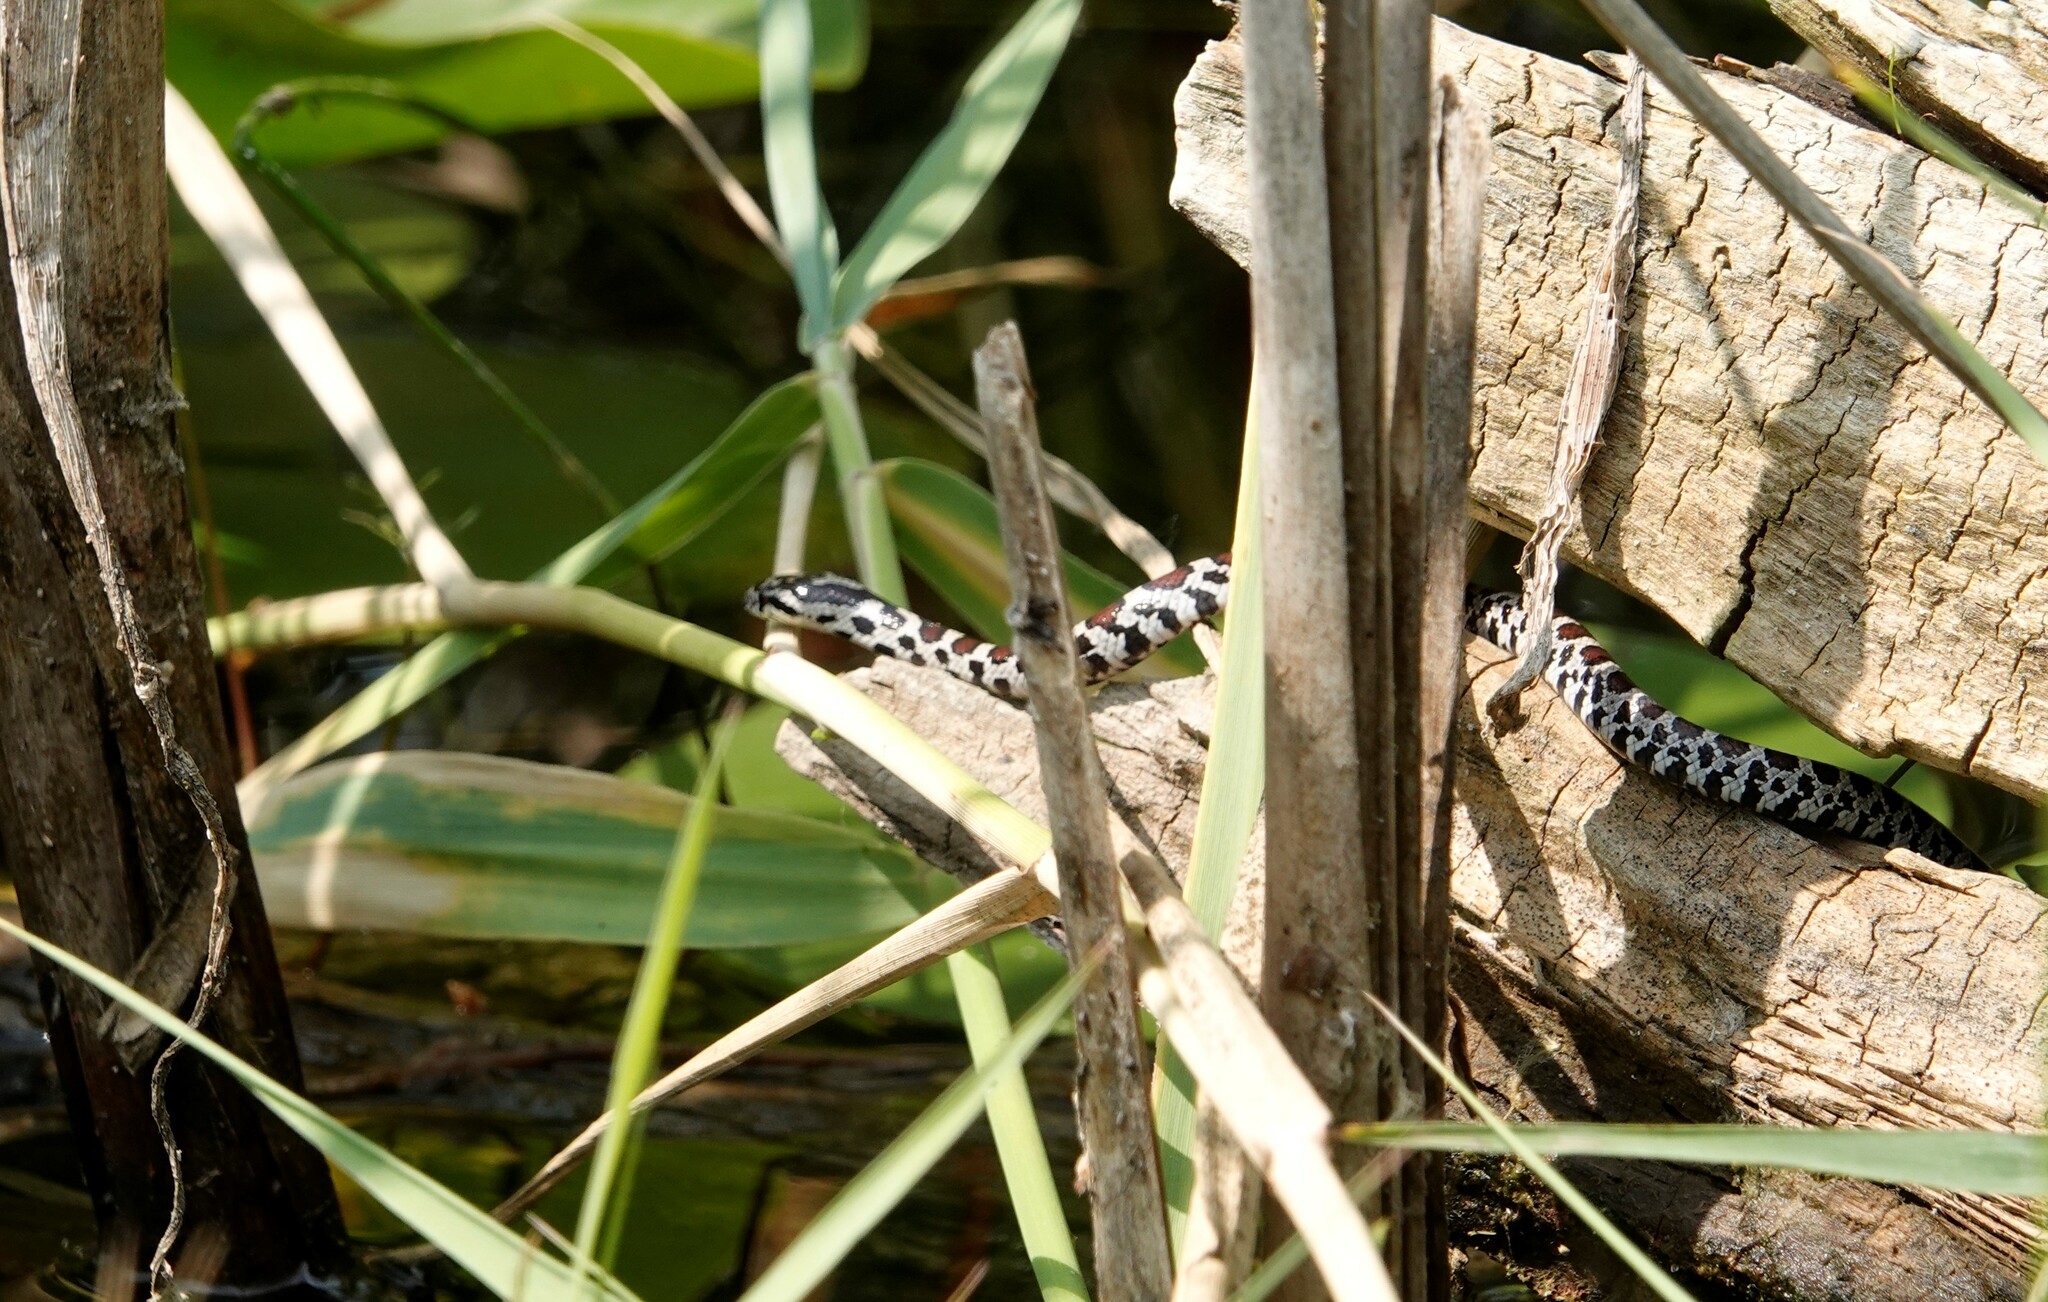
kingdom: Animalia
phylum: Chordata
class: Squamata
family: Colubridae
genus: Lampropeltis
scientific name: Lampropeltis triangulum
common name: Eastern milksnake
